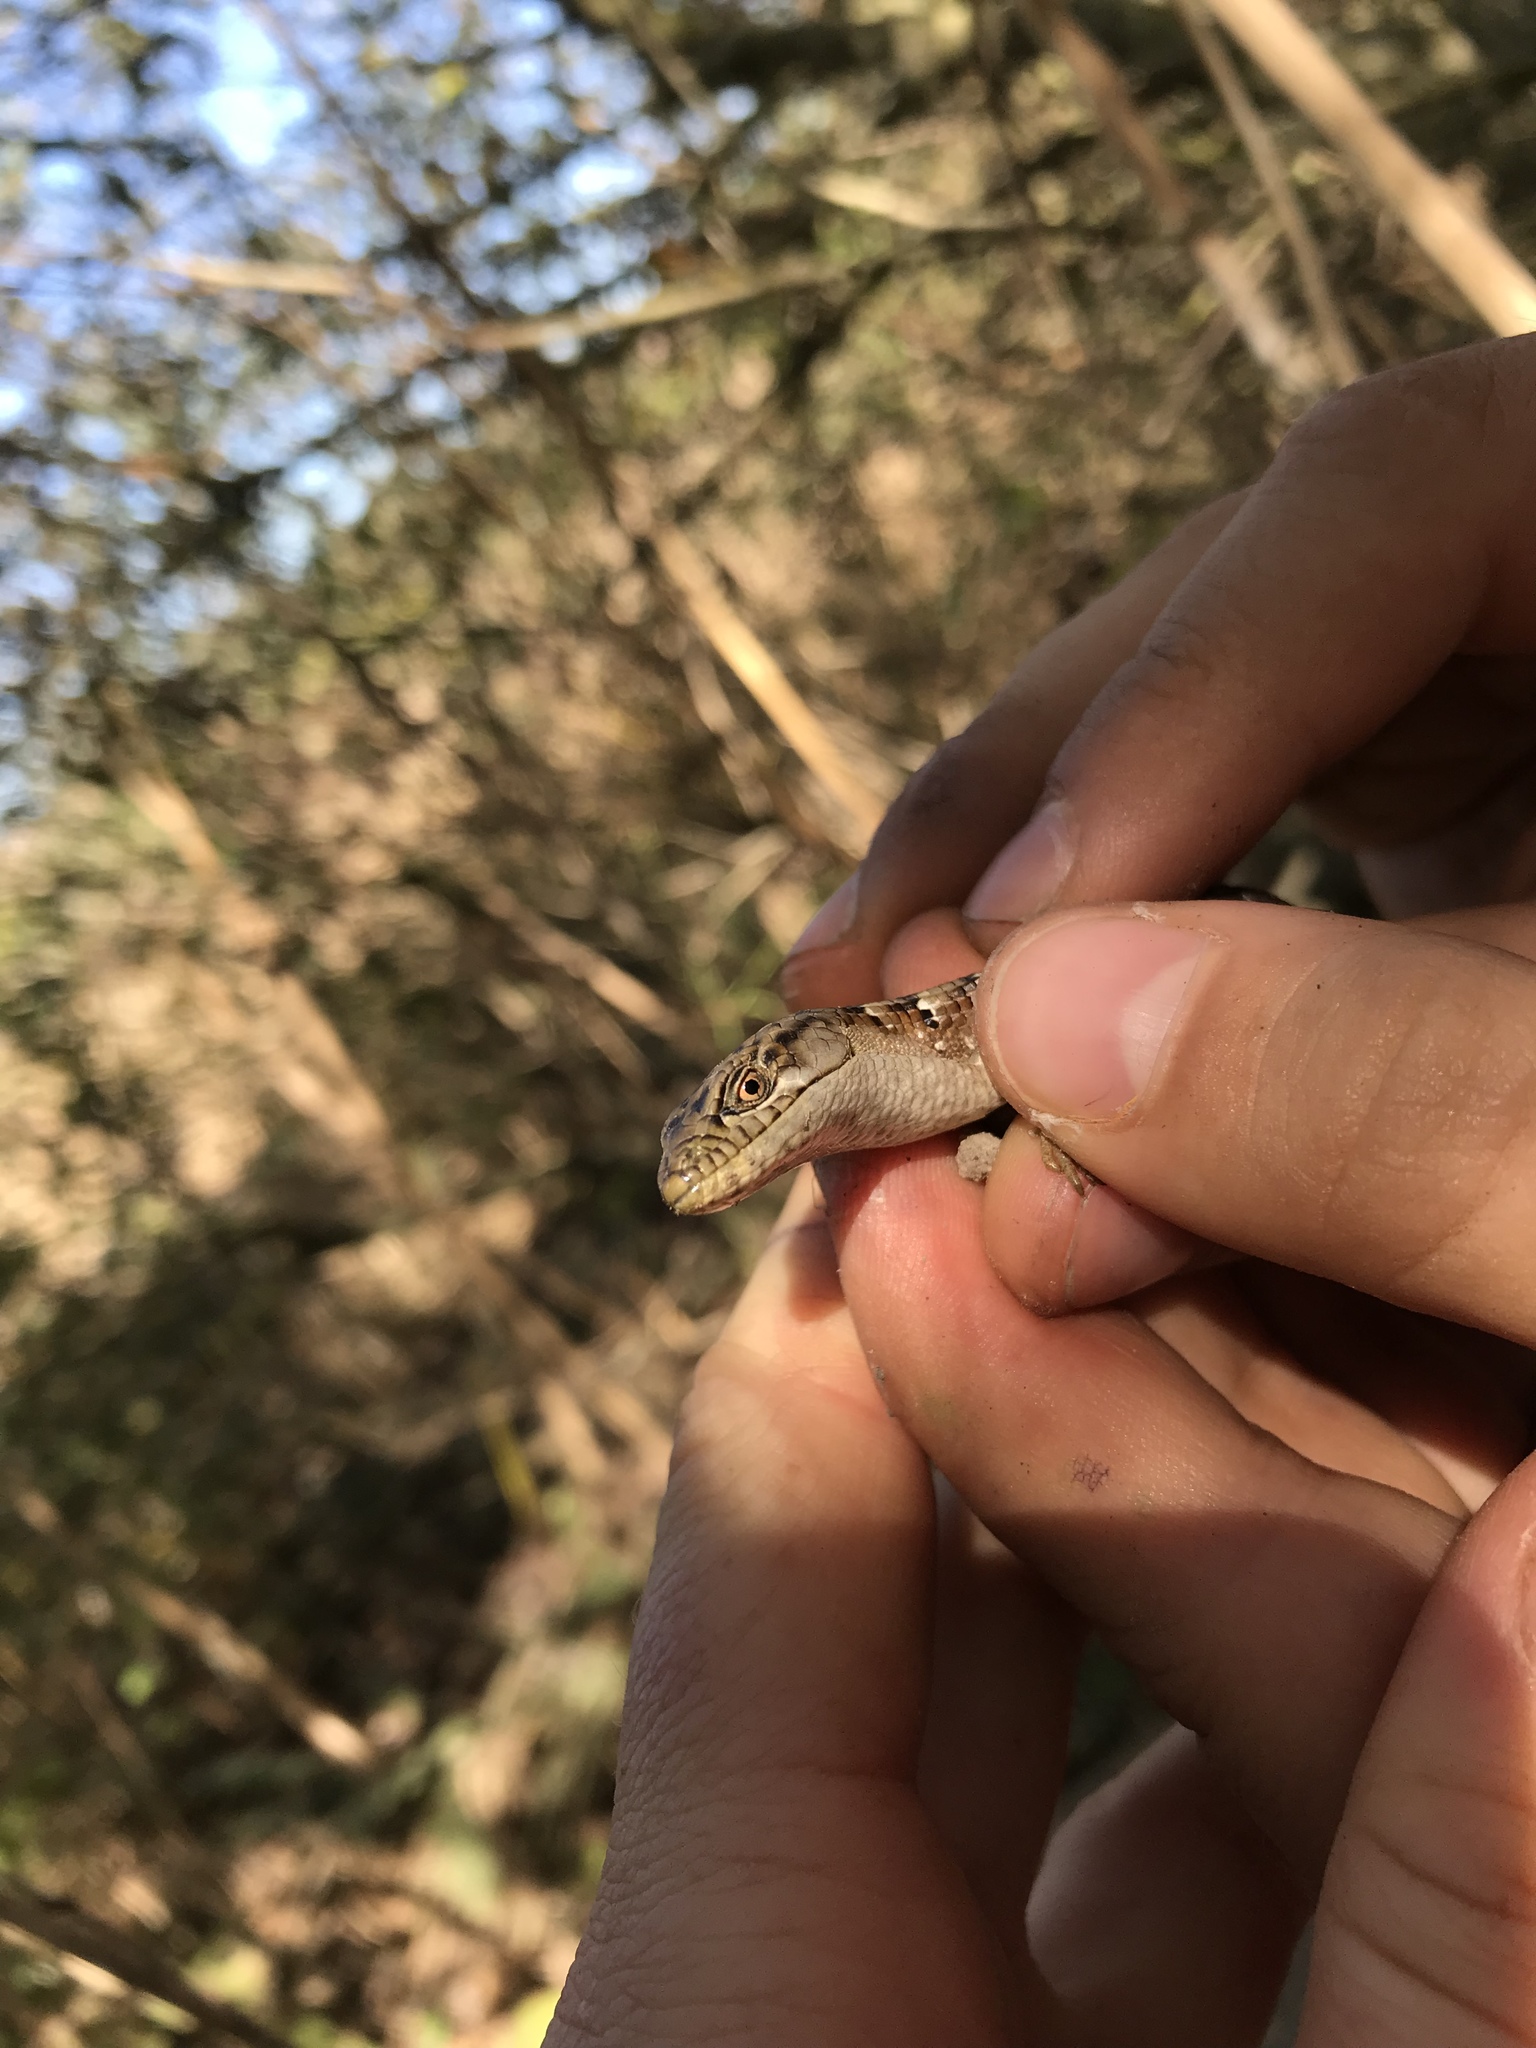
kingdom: Animalia
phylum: Chordata
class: Squamata
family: Anguidae
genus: Elgaria
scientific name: Elgaria multicarinata
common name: Southern alligator lizard
